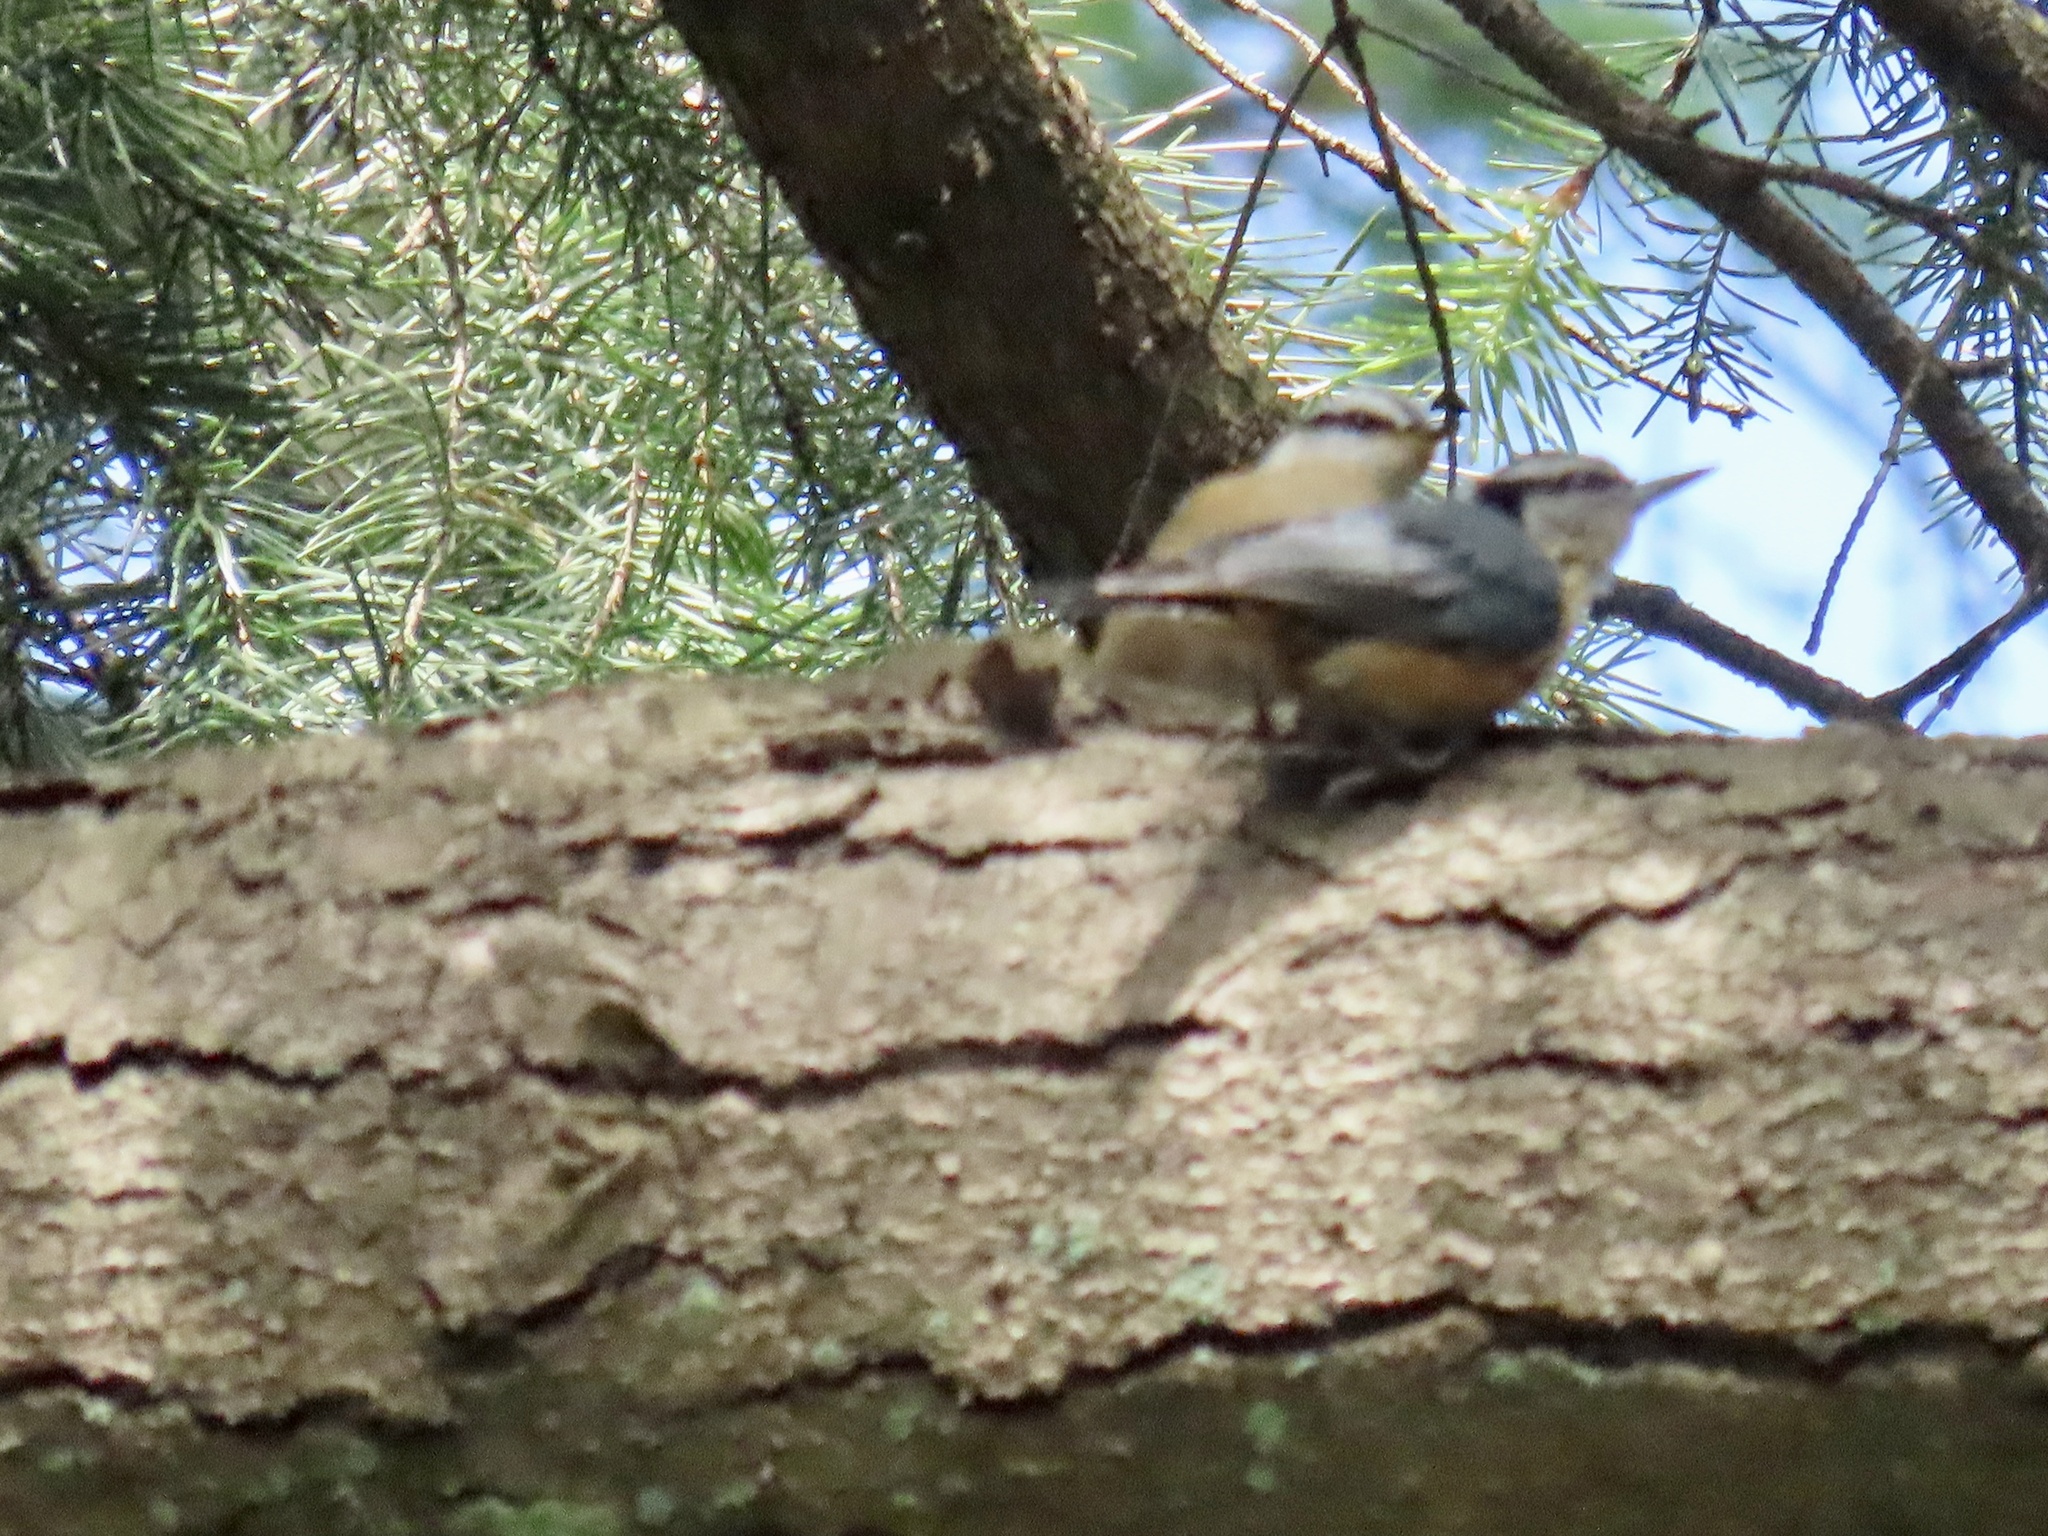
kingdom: Animalia
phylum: Chordata
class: Aves
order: Passeriformes
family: Sittidae
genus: Sitta
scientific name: Sitta canadensis
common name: Red-breasted nuthatch
